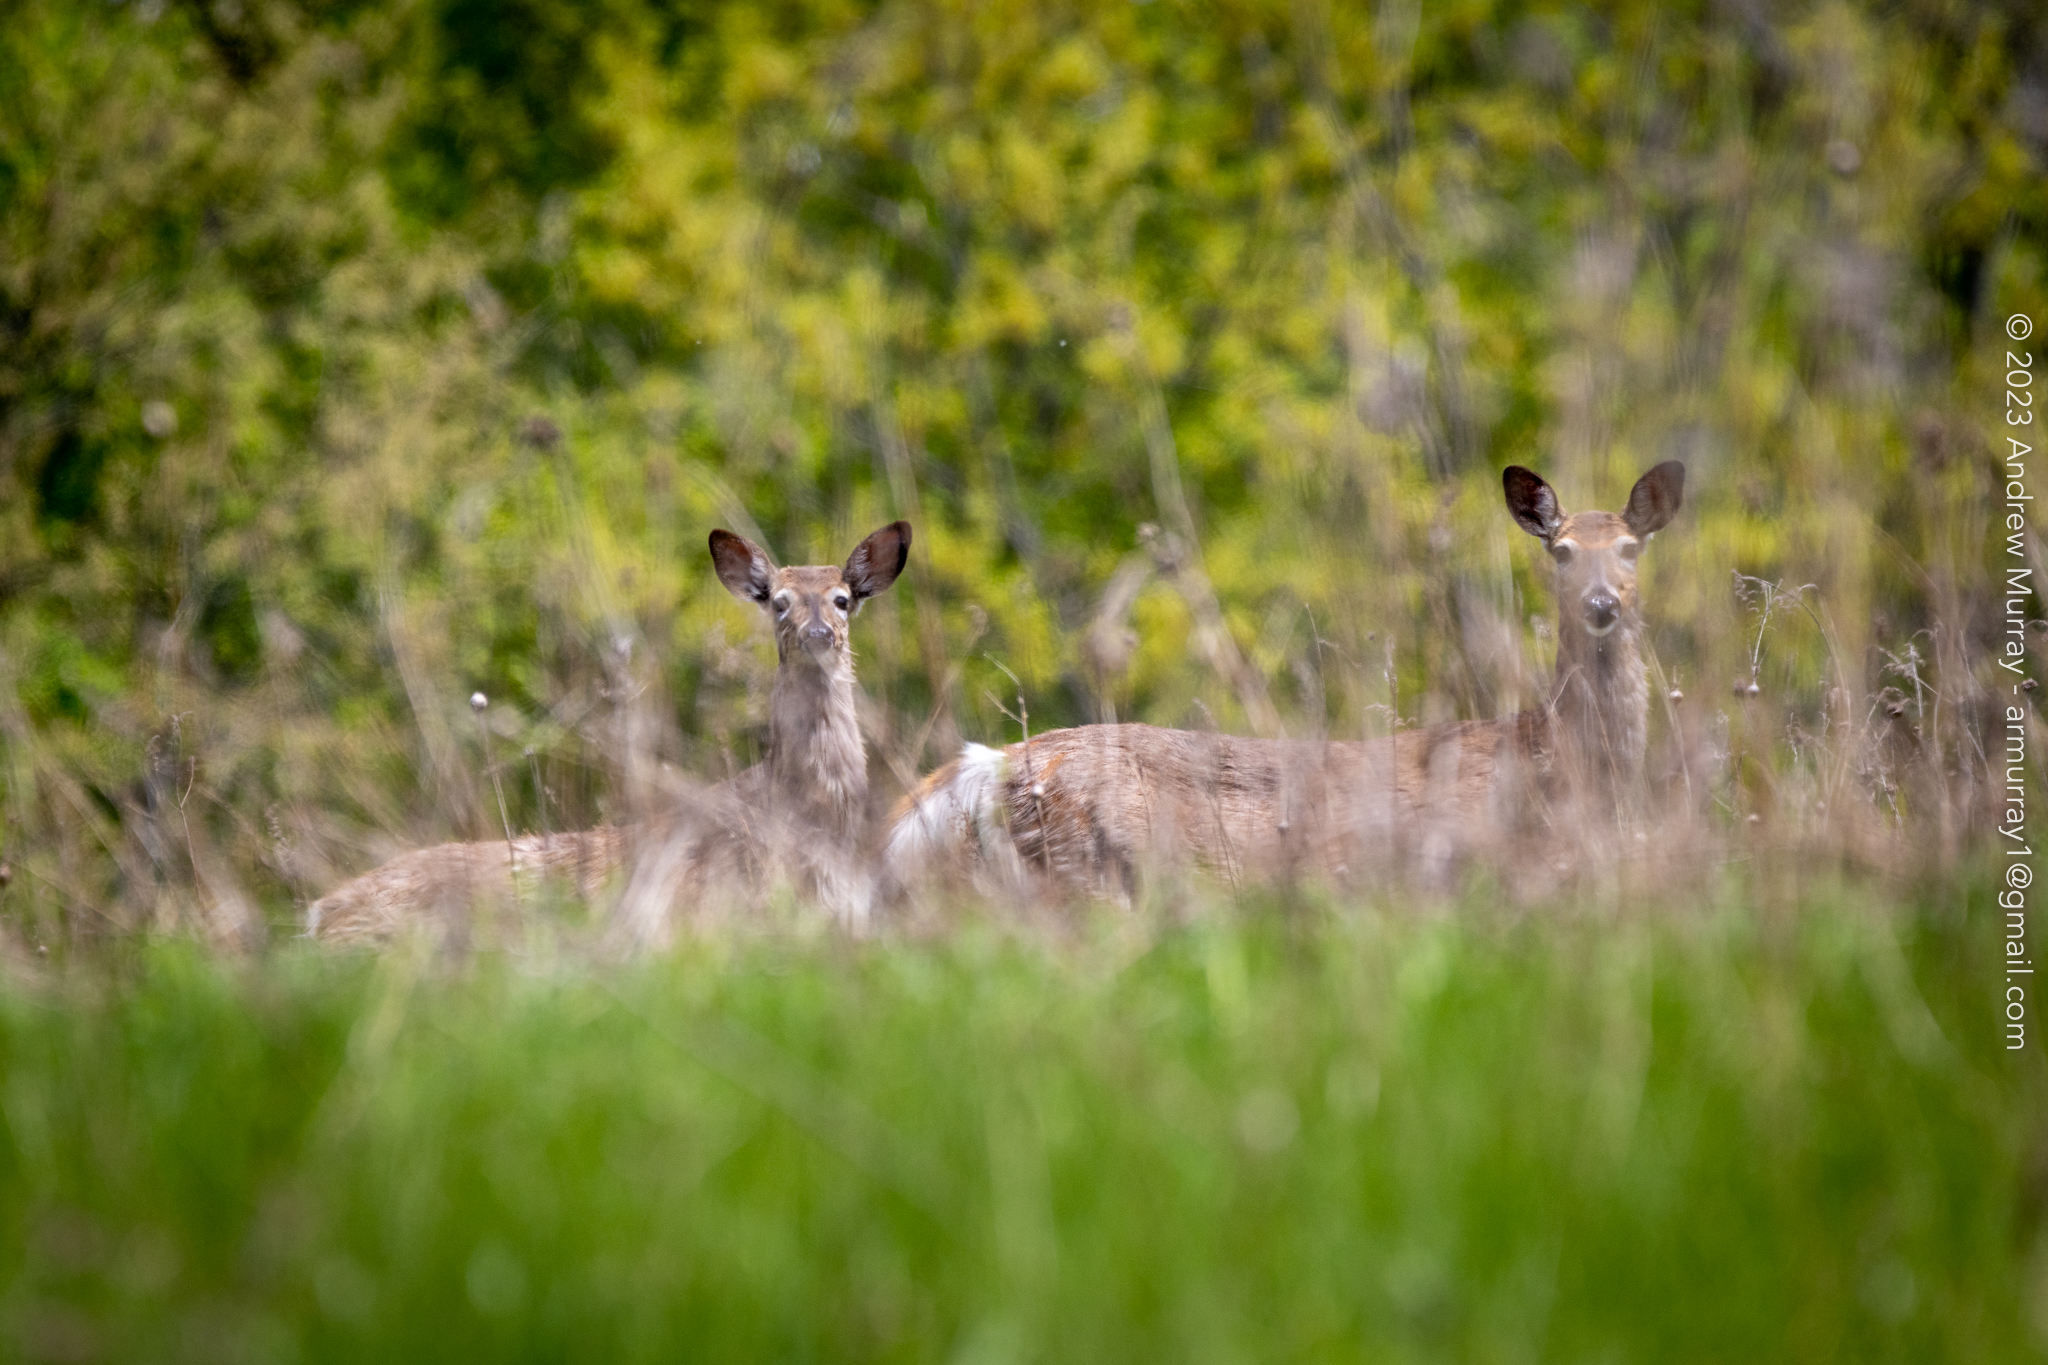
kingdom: Animalia
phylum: Chordata
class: Mammalia
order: Artiodactyla
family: Cervidae
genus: Odocoileus
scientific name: Odocoileus virginianus
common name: White-tailed deer
